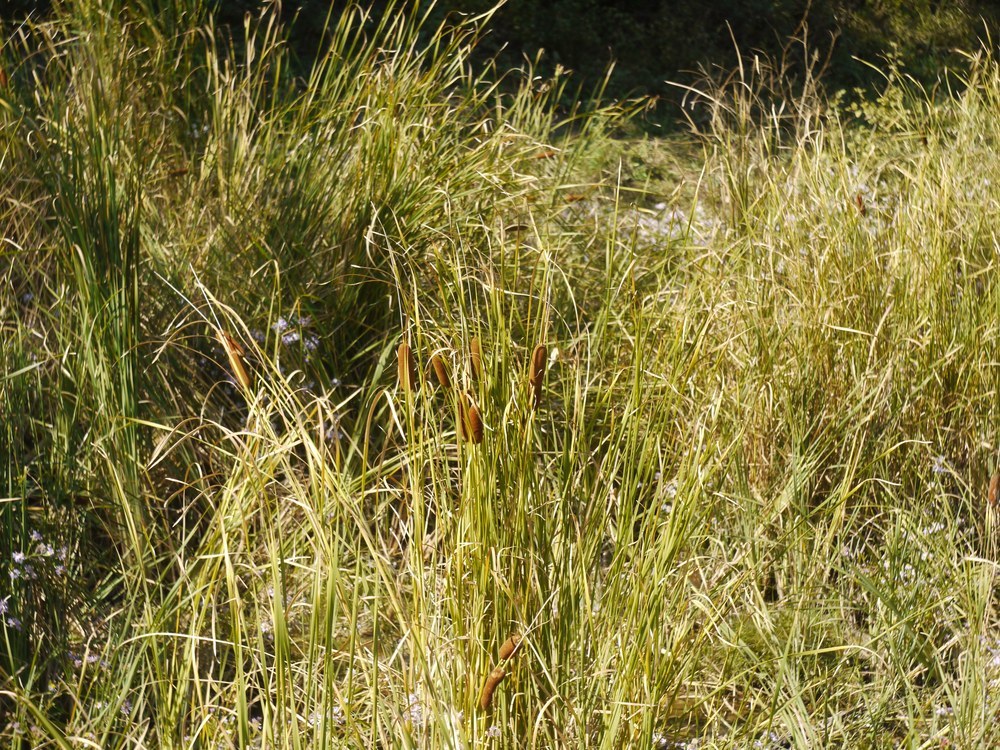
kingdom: Plantae
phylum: Tracheophyta
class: Liliopsida
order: Poales
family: Typhaceae
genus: Typha
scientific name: Typha laxmannii
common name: Laxman’s bulrush
